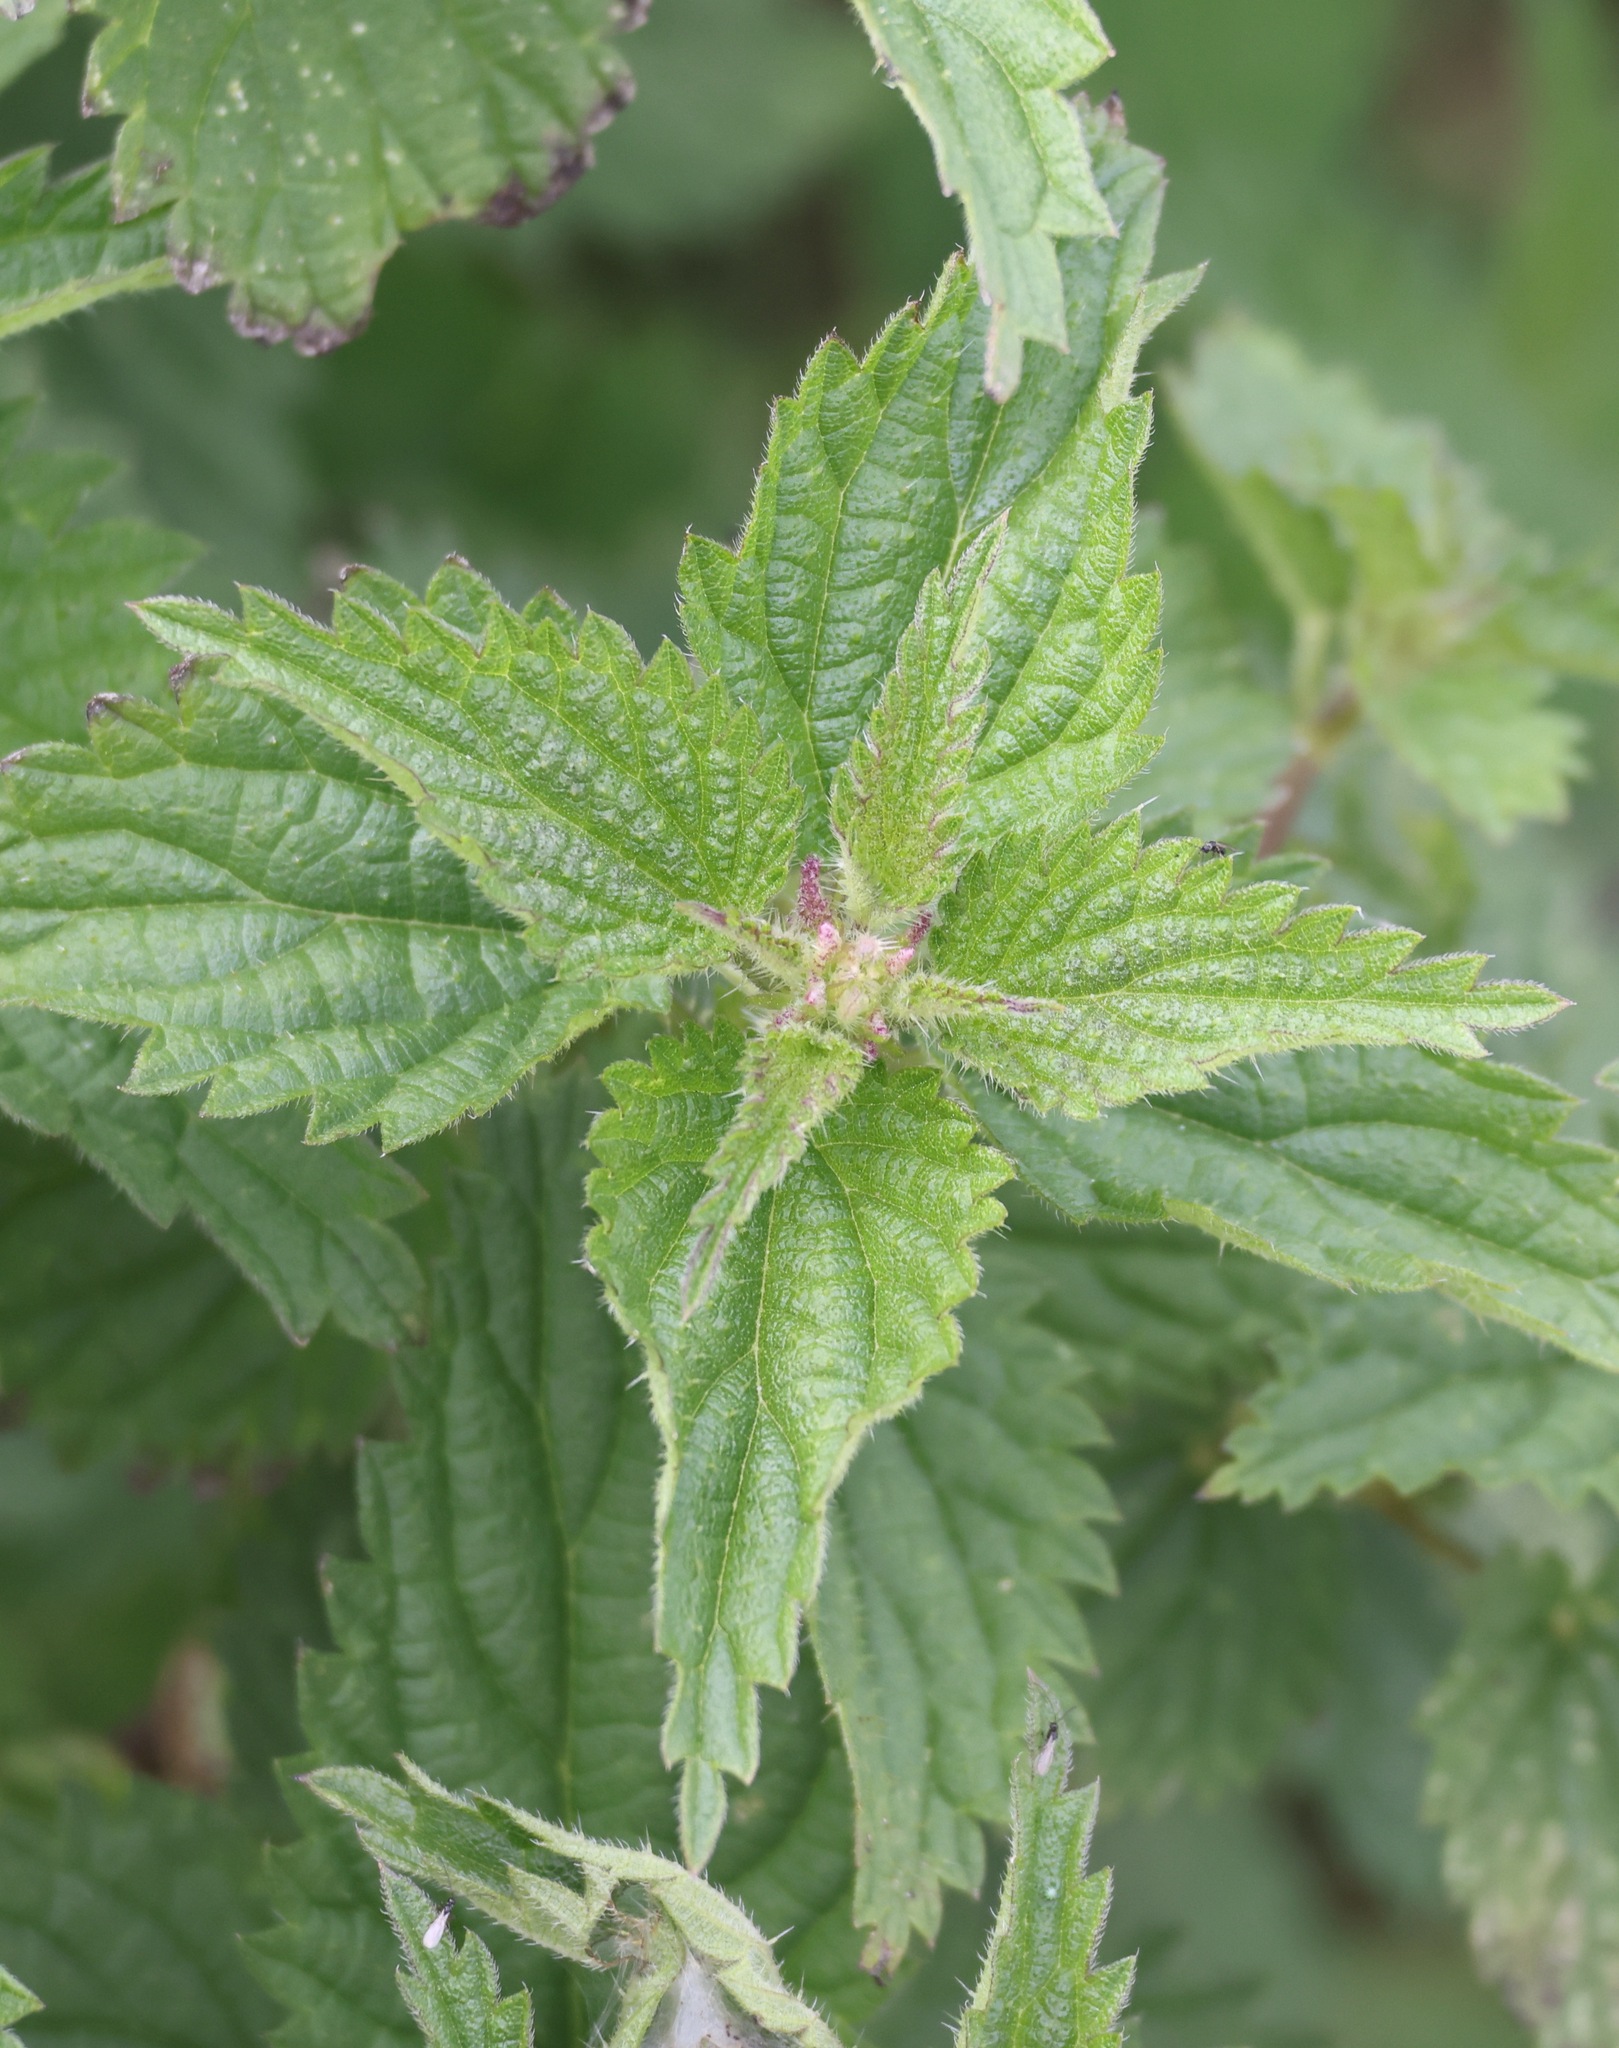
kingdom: Plantae
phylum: Tracheophyta
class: Magnoliopsida
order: Rosales
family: Urticaceae
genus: Urtica
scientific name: Urtica dioica
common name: Common nettle
